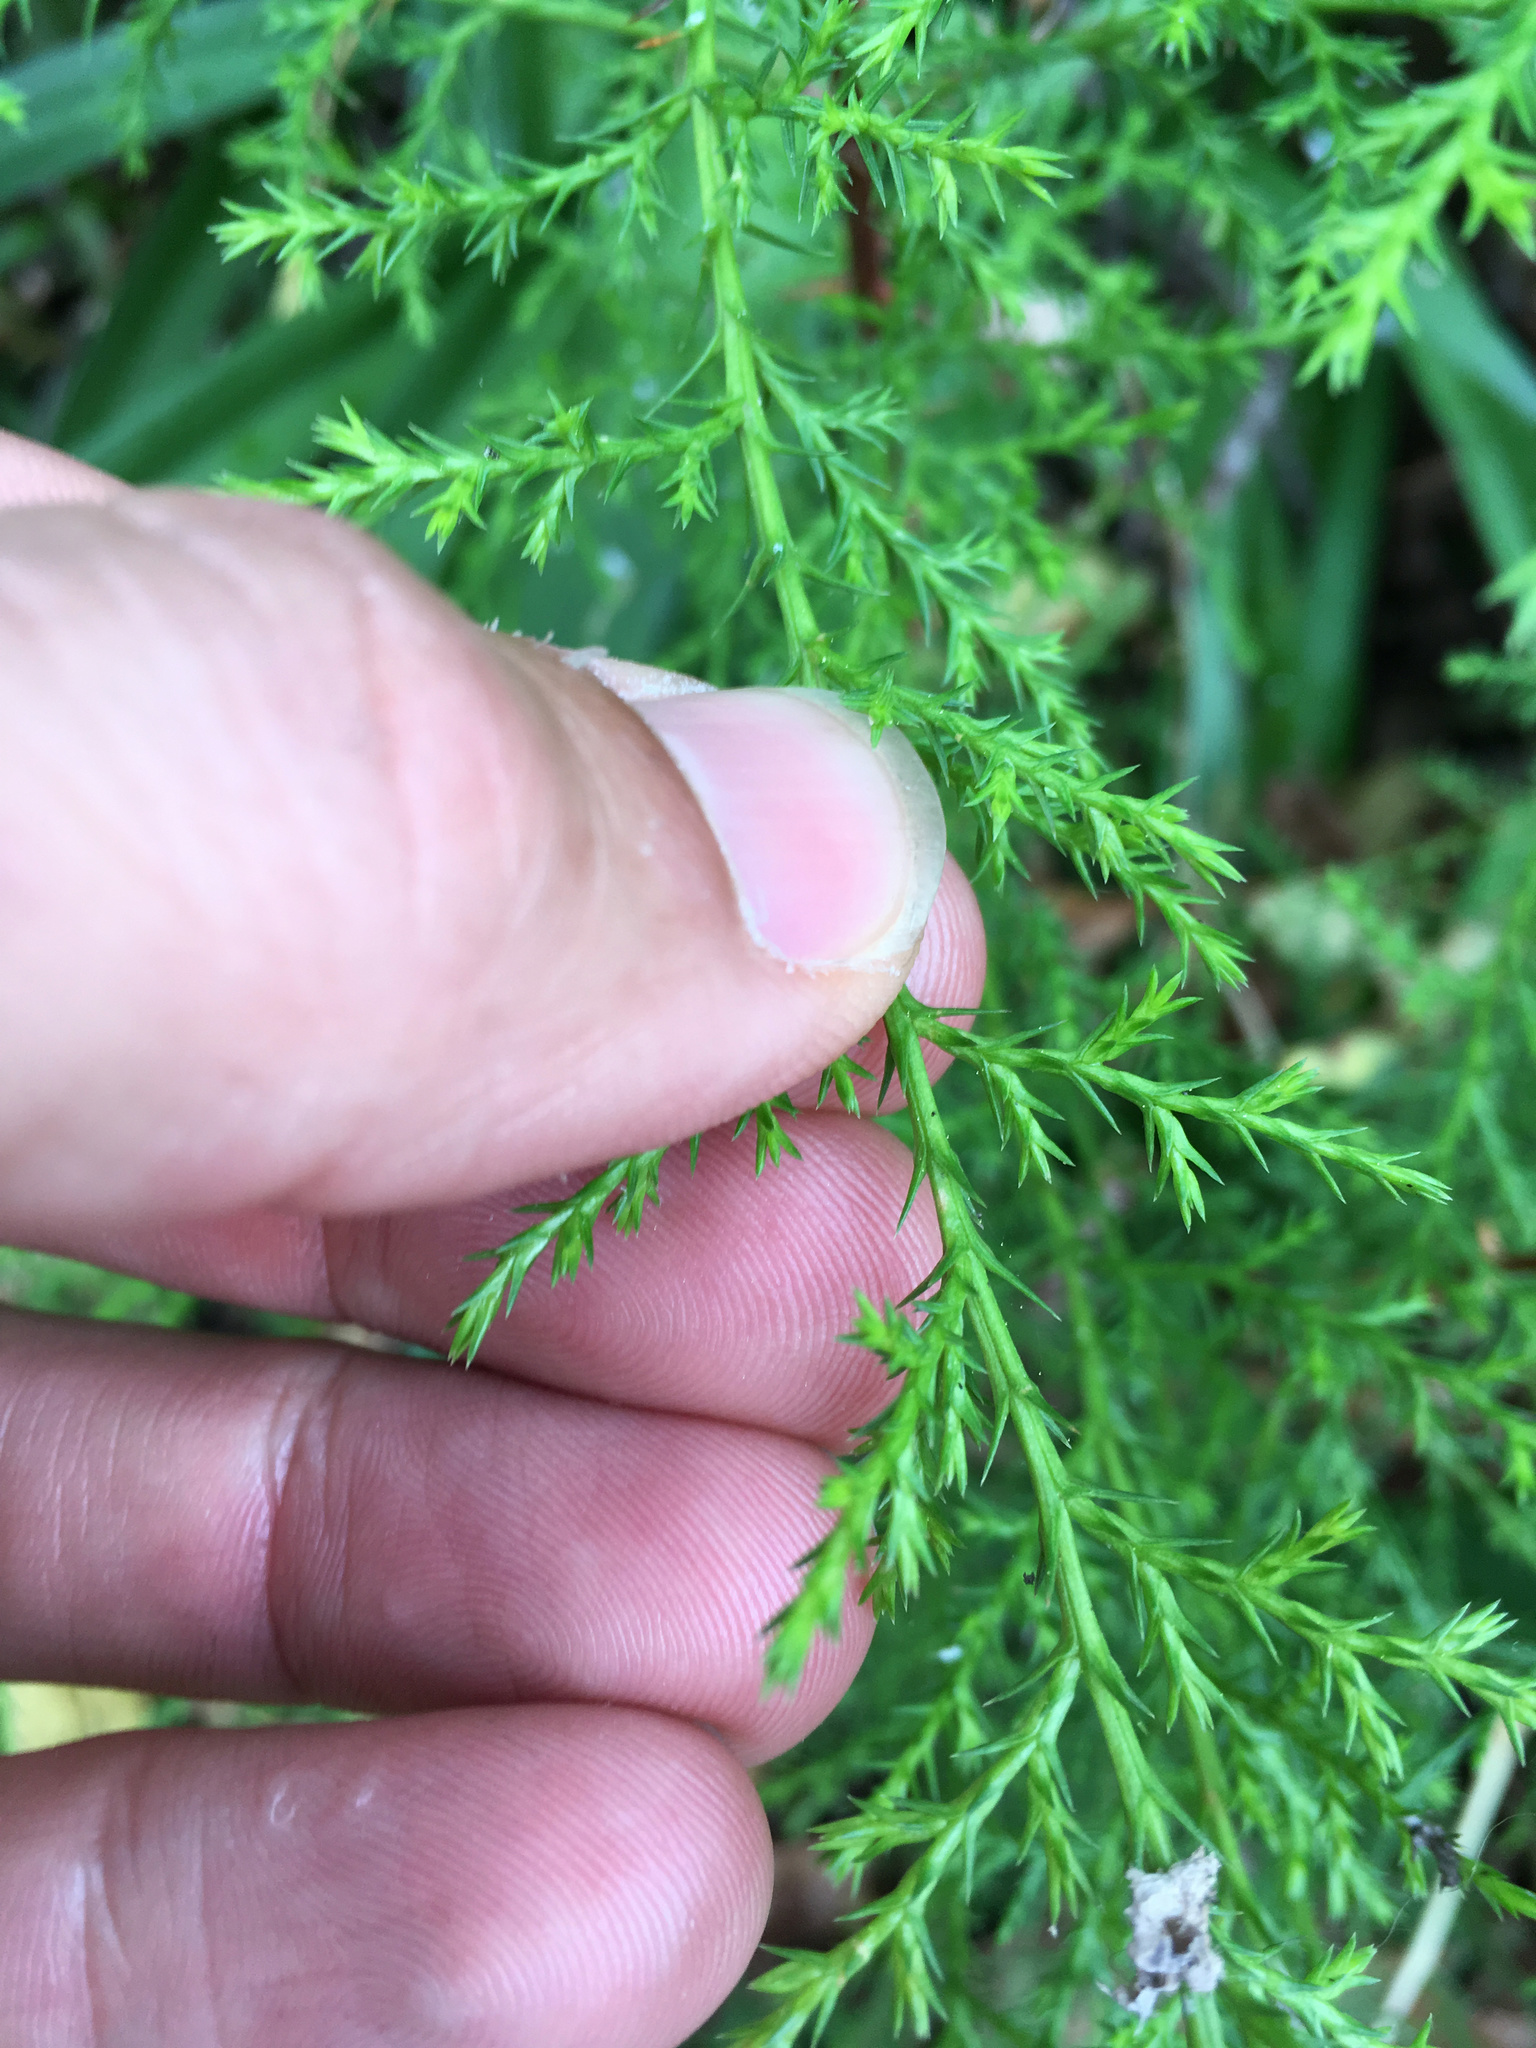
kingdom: Plantae
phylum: Tracheophyta
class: Pinopsida
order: Pinales
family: Cupressaceae
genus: Cupressus
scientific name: Cupressus macrocarpa
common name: Monterey cypress
